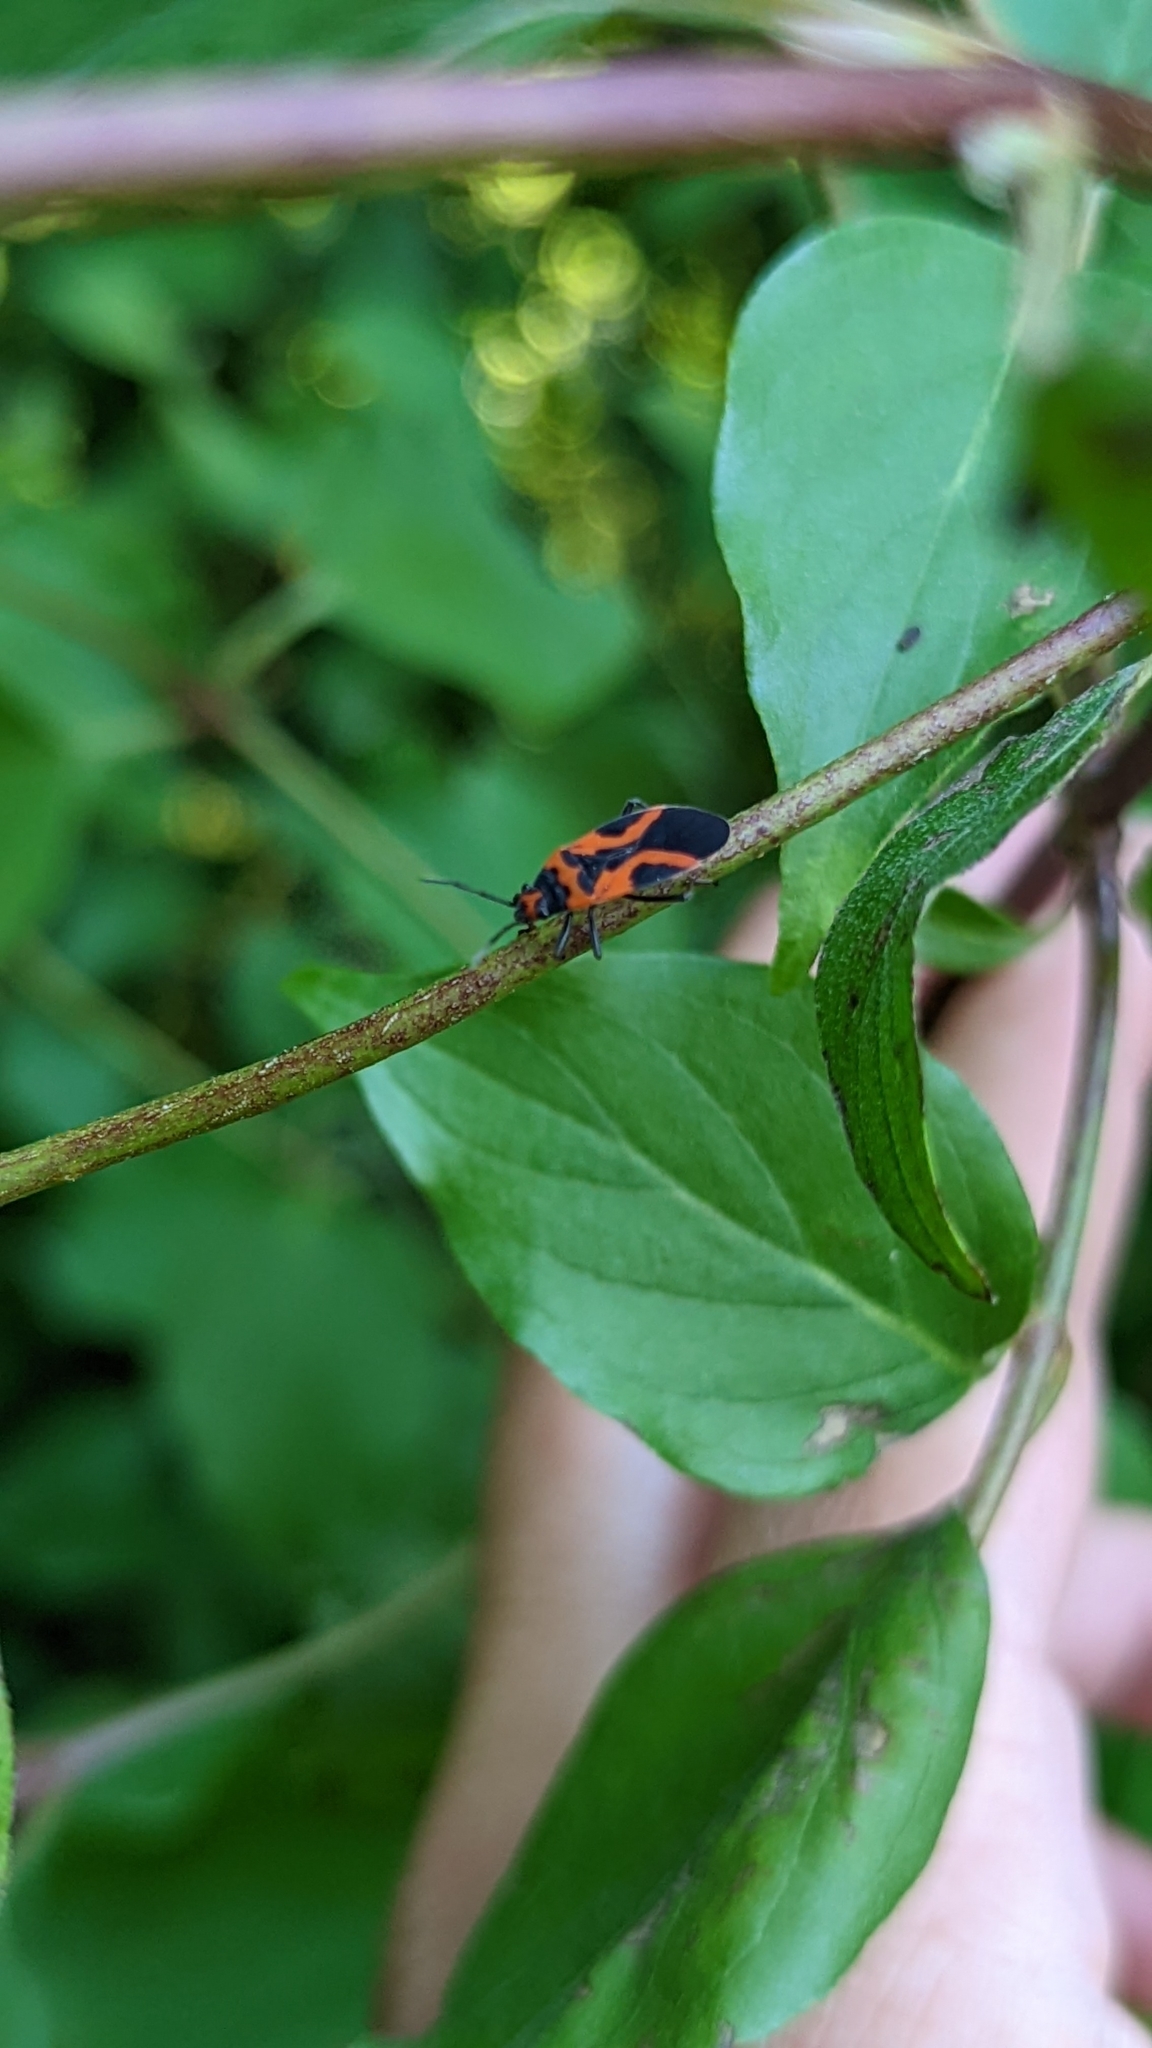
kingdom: Animalia
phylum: Arthropoda
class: Insecta
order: Hemiptera
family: Lygaeidae
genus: Lygaeus
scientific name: Lygaeus turcicus
